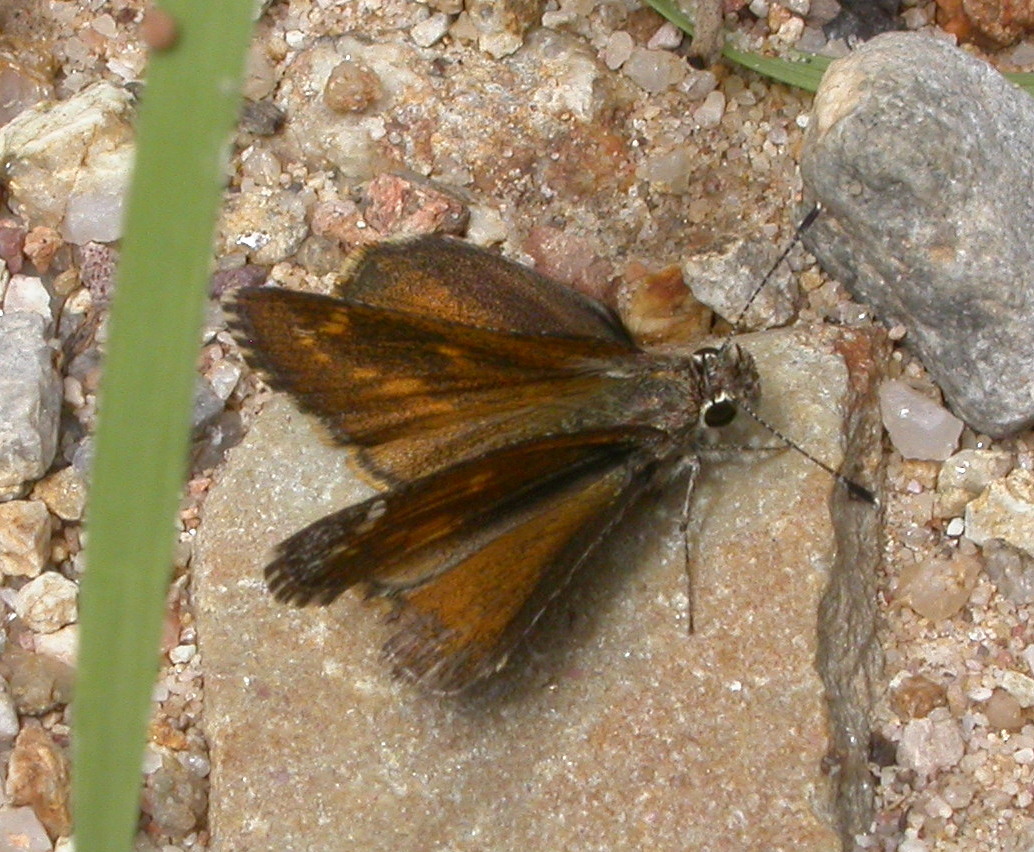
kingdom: Animalia
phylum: Arthropoda
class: Insecta
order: Lepidoptera
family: Hesperiidae
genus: Mastor
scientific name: Mastor cassus
